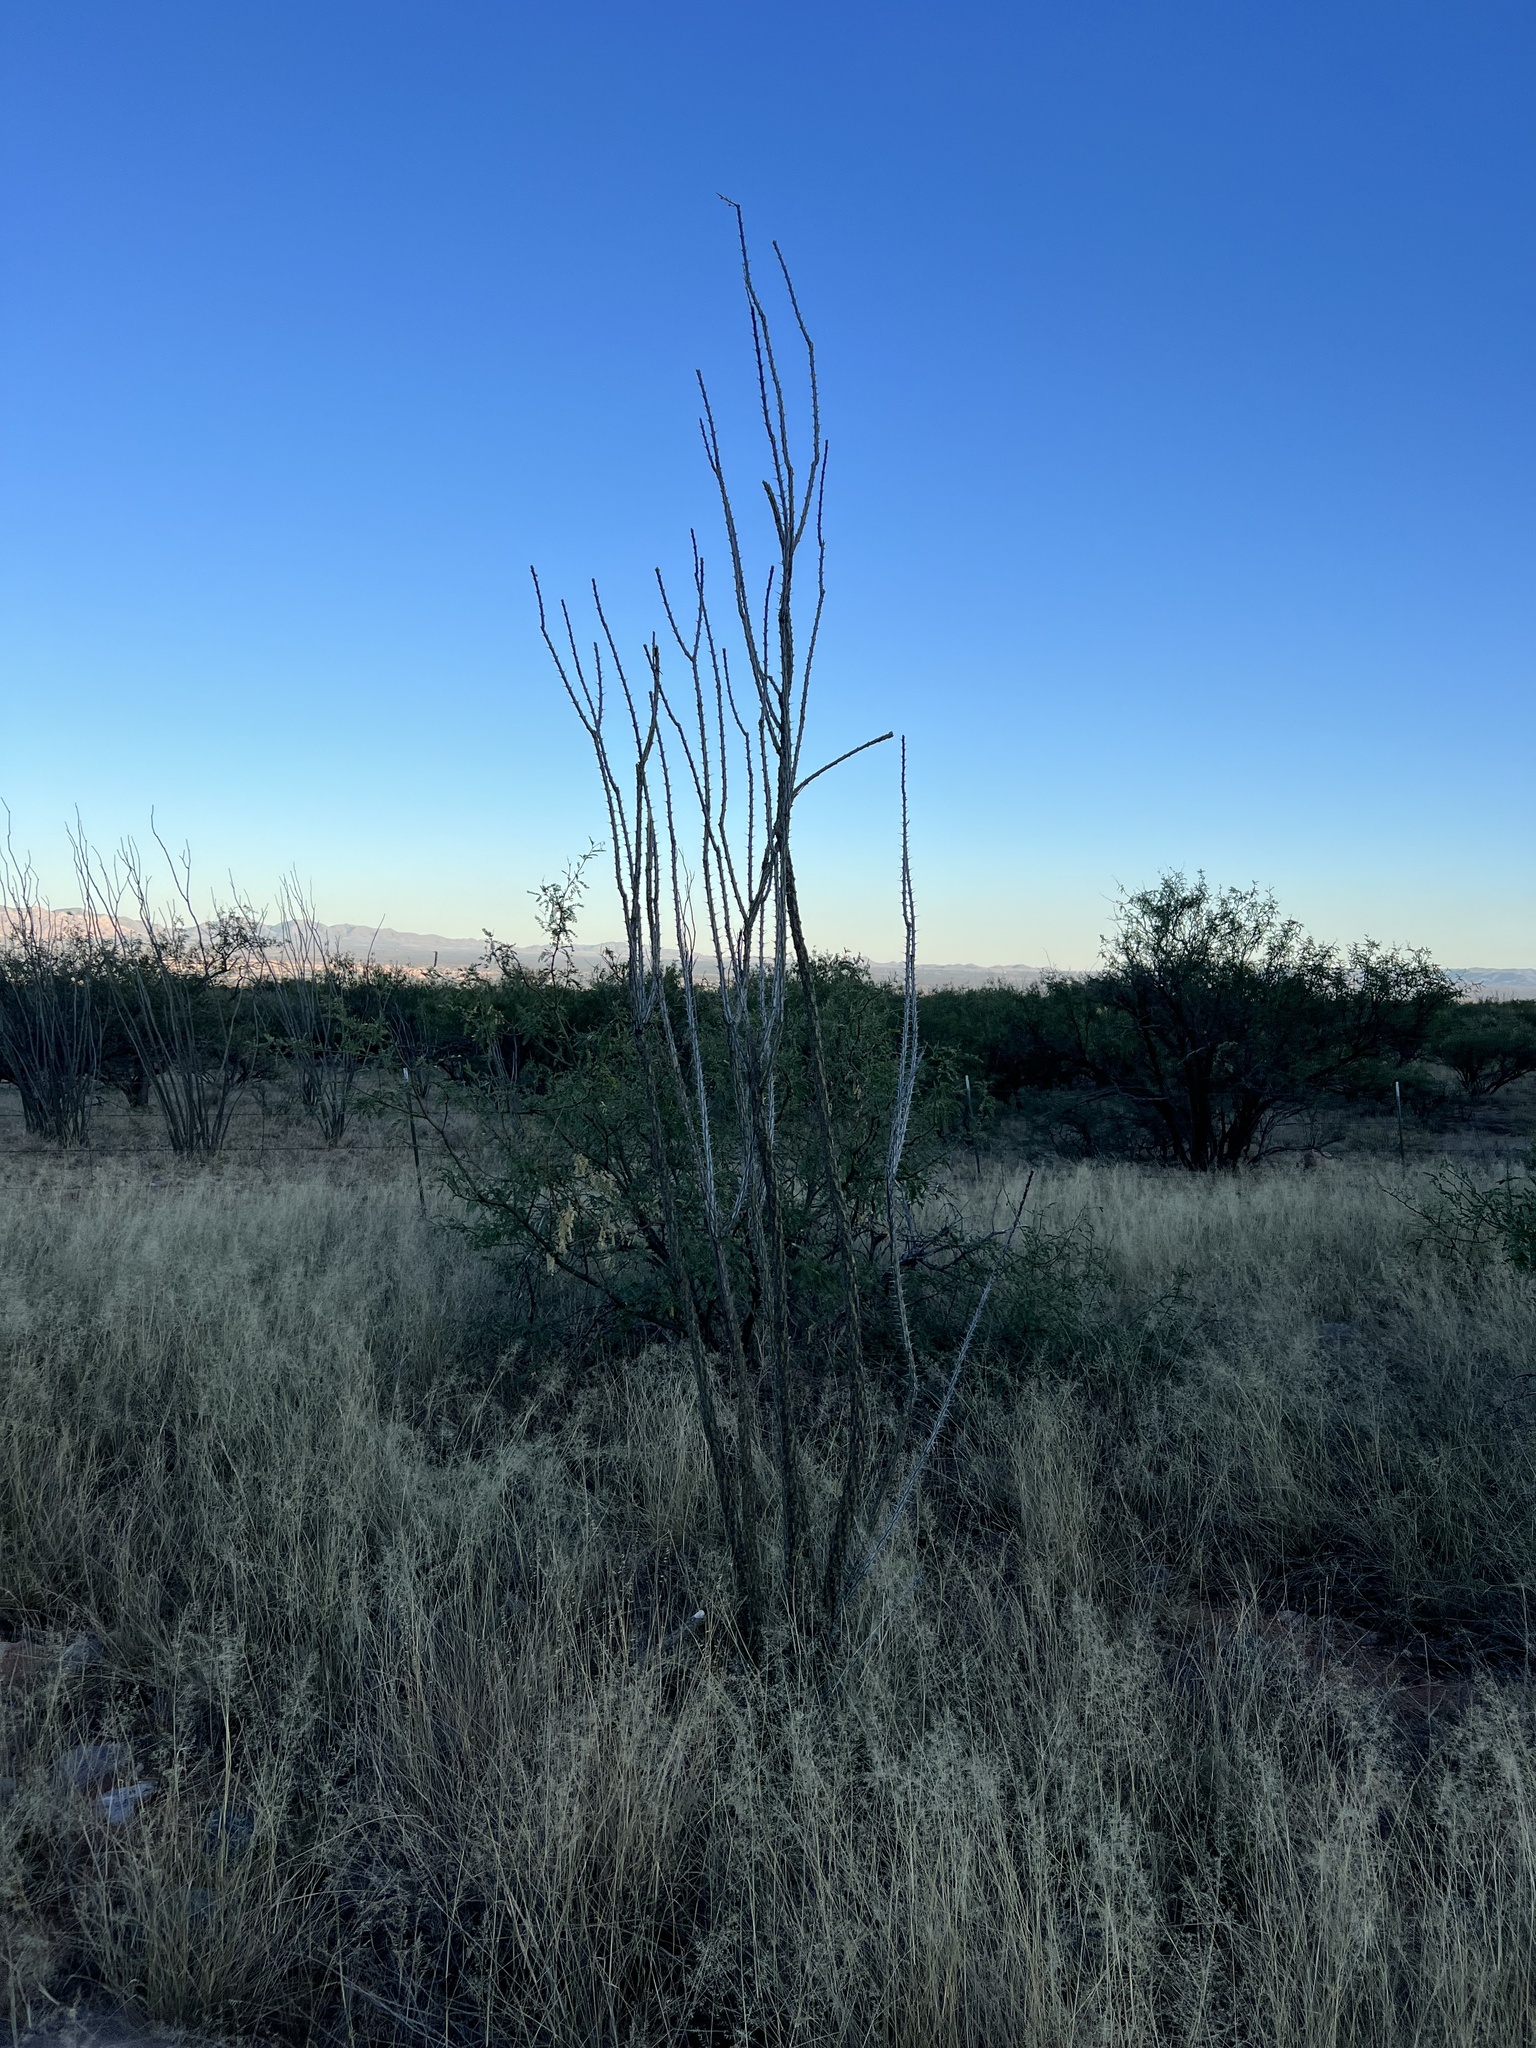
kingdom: Plantae
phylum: Tracheophyta
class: Magnoliopsida
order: Ericales
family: Fouquieriaceae
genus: Fouquieria
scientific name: Fouquieria splendens
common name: Vine-cactus
